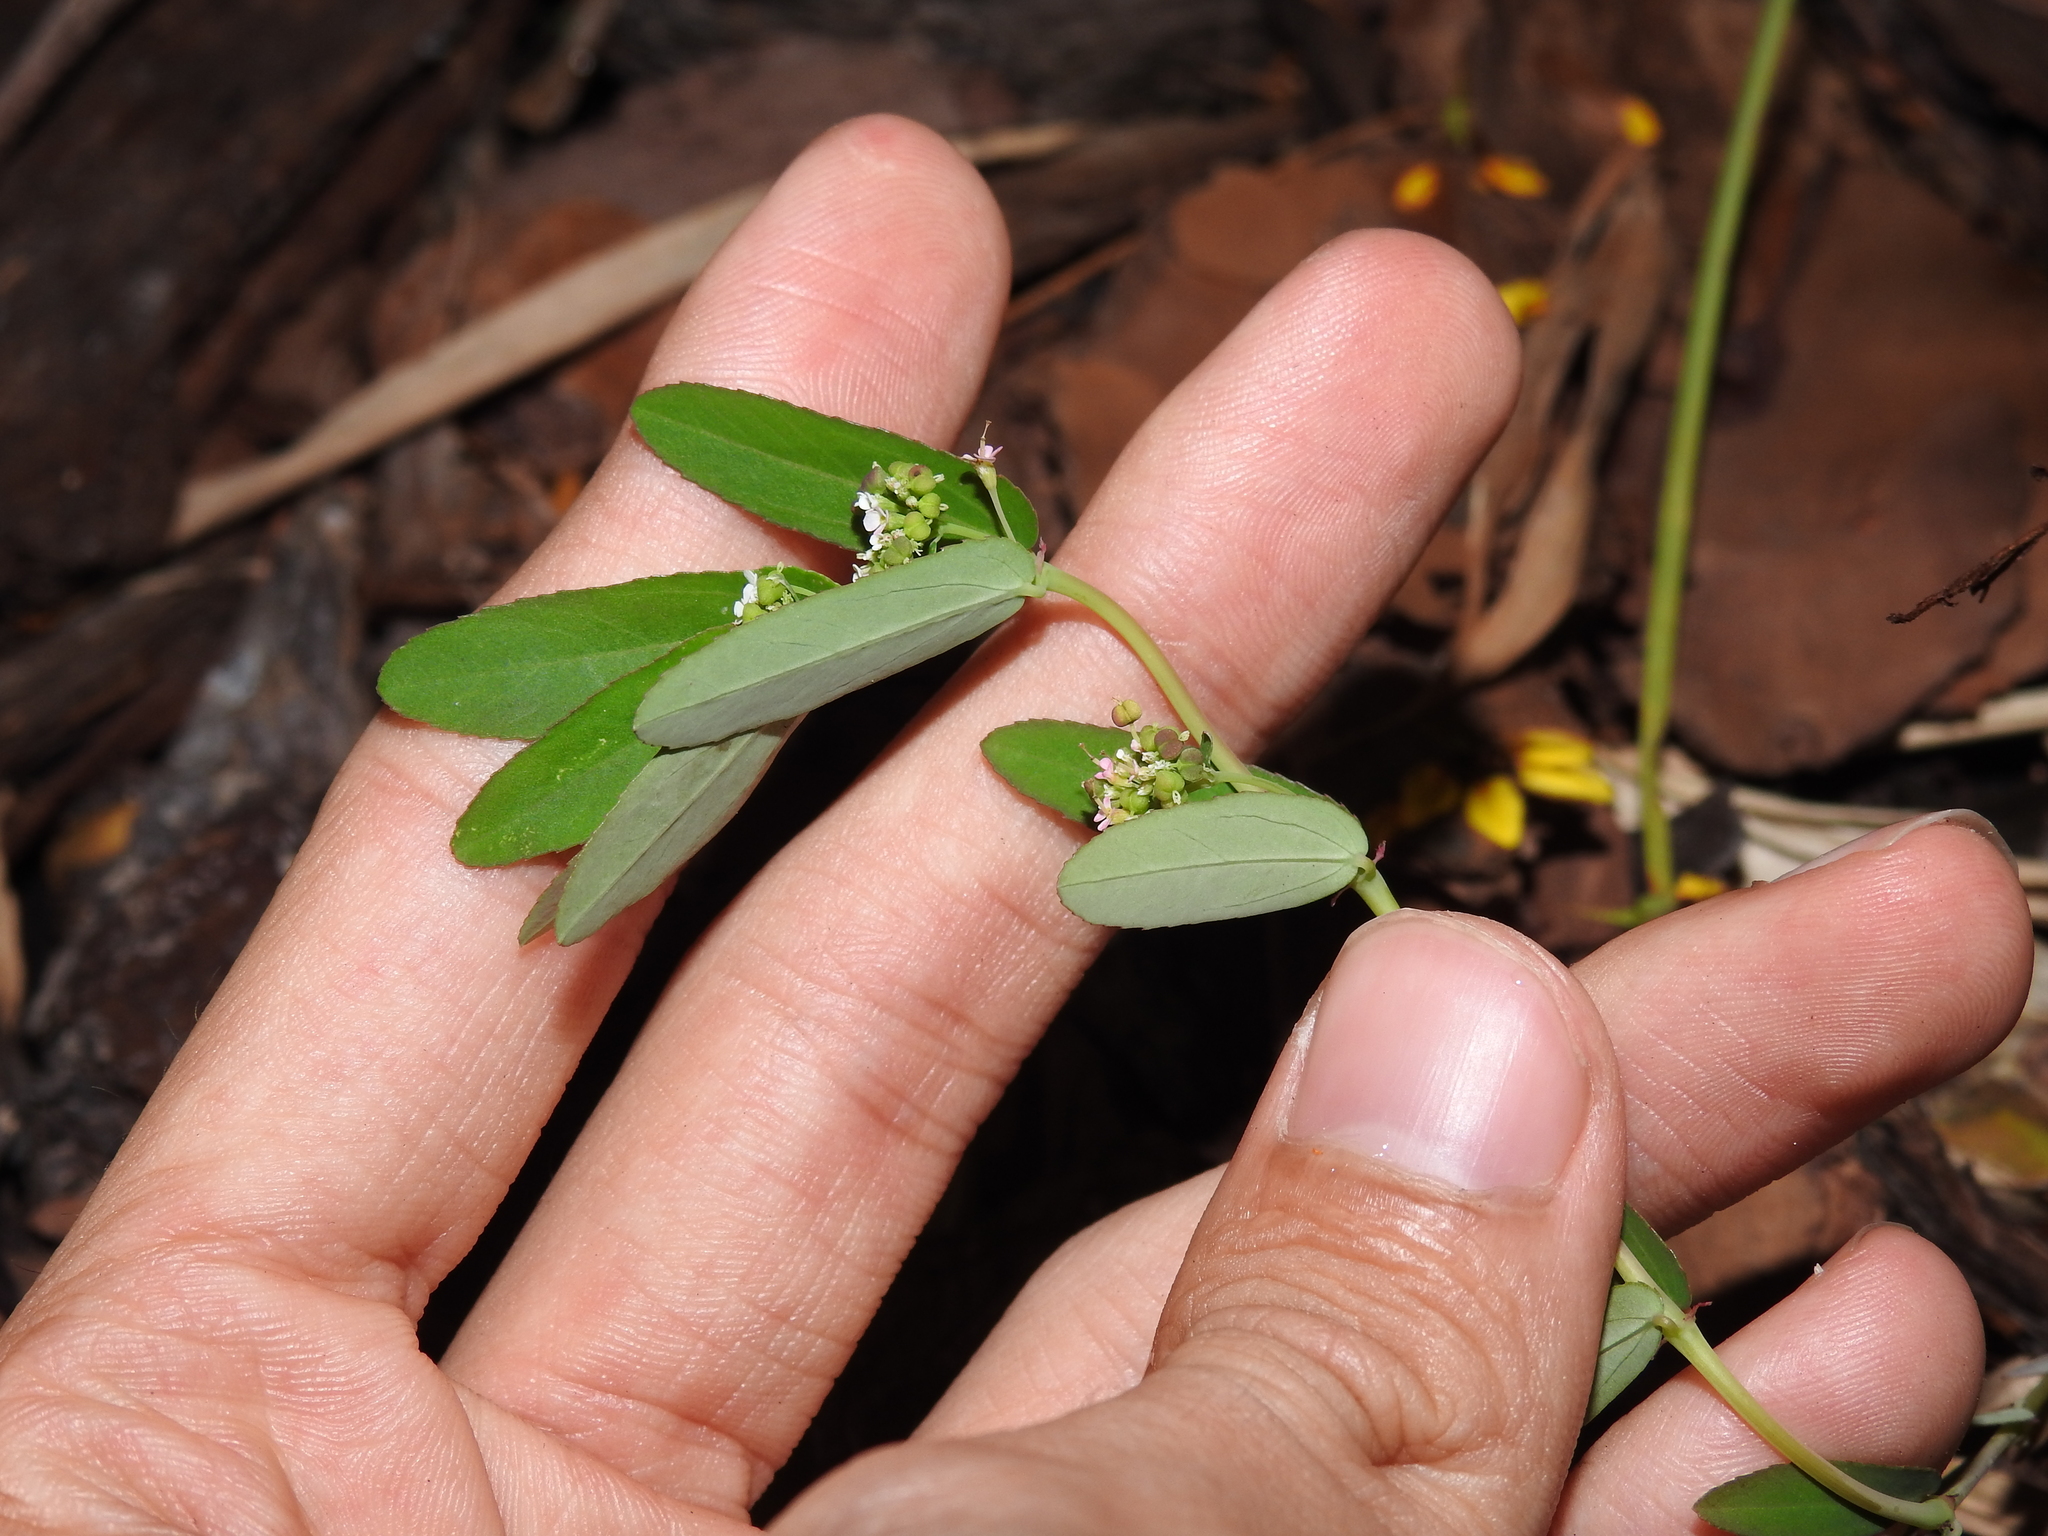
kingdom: Plantae
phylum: Tracheophyta
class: Magnoliopsida
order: Malpighiales
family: Euphorbiaceae
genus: Euphorbia
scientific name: Euphorbia graminea
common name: Grassleaf spurge
